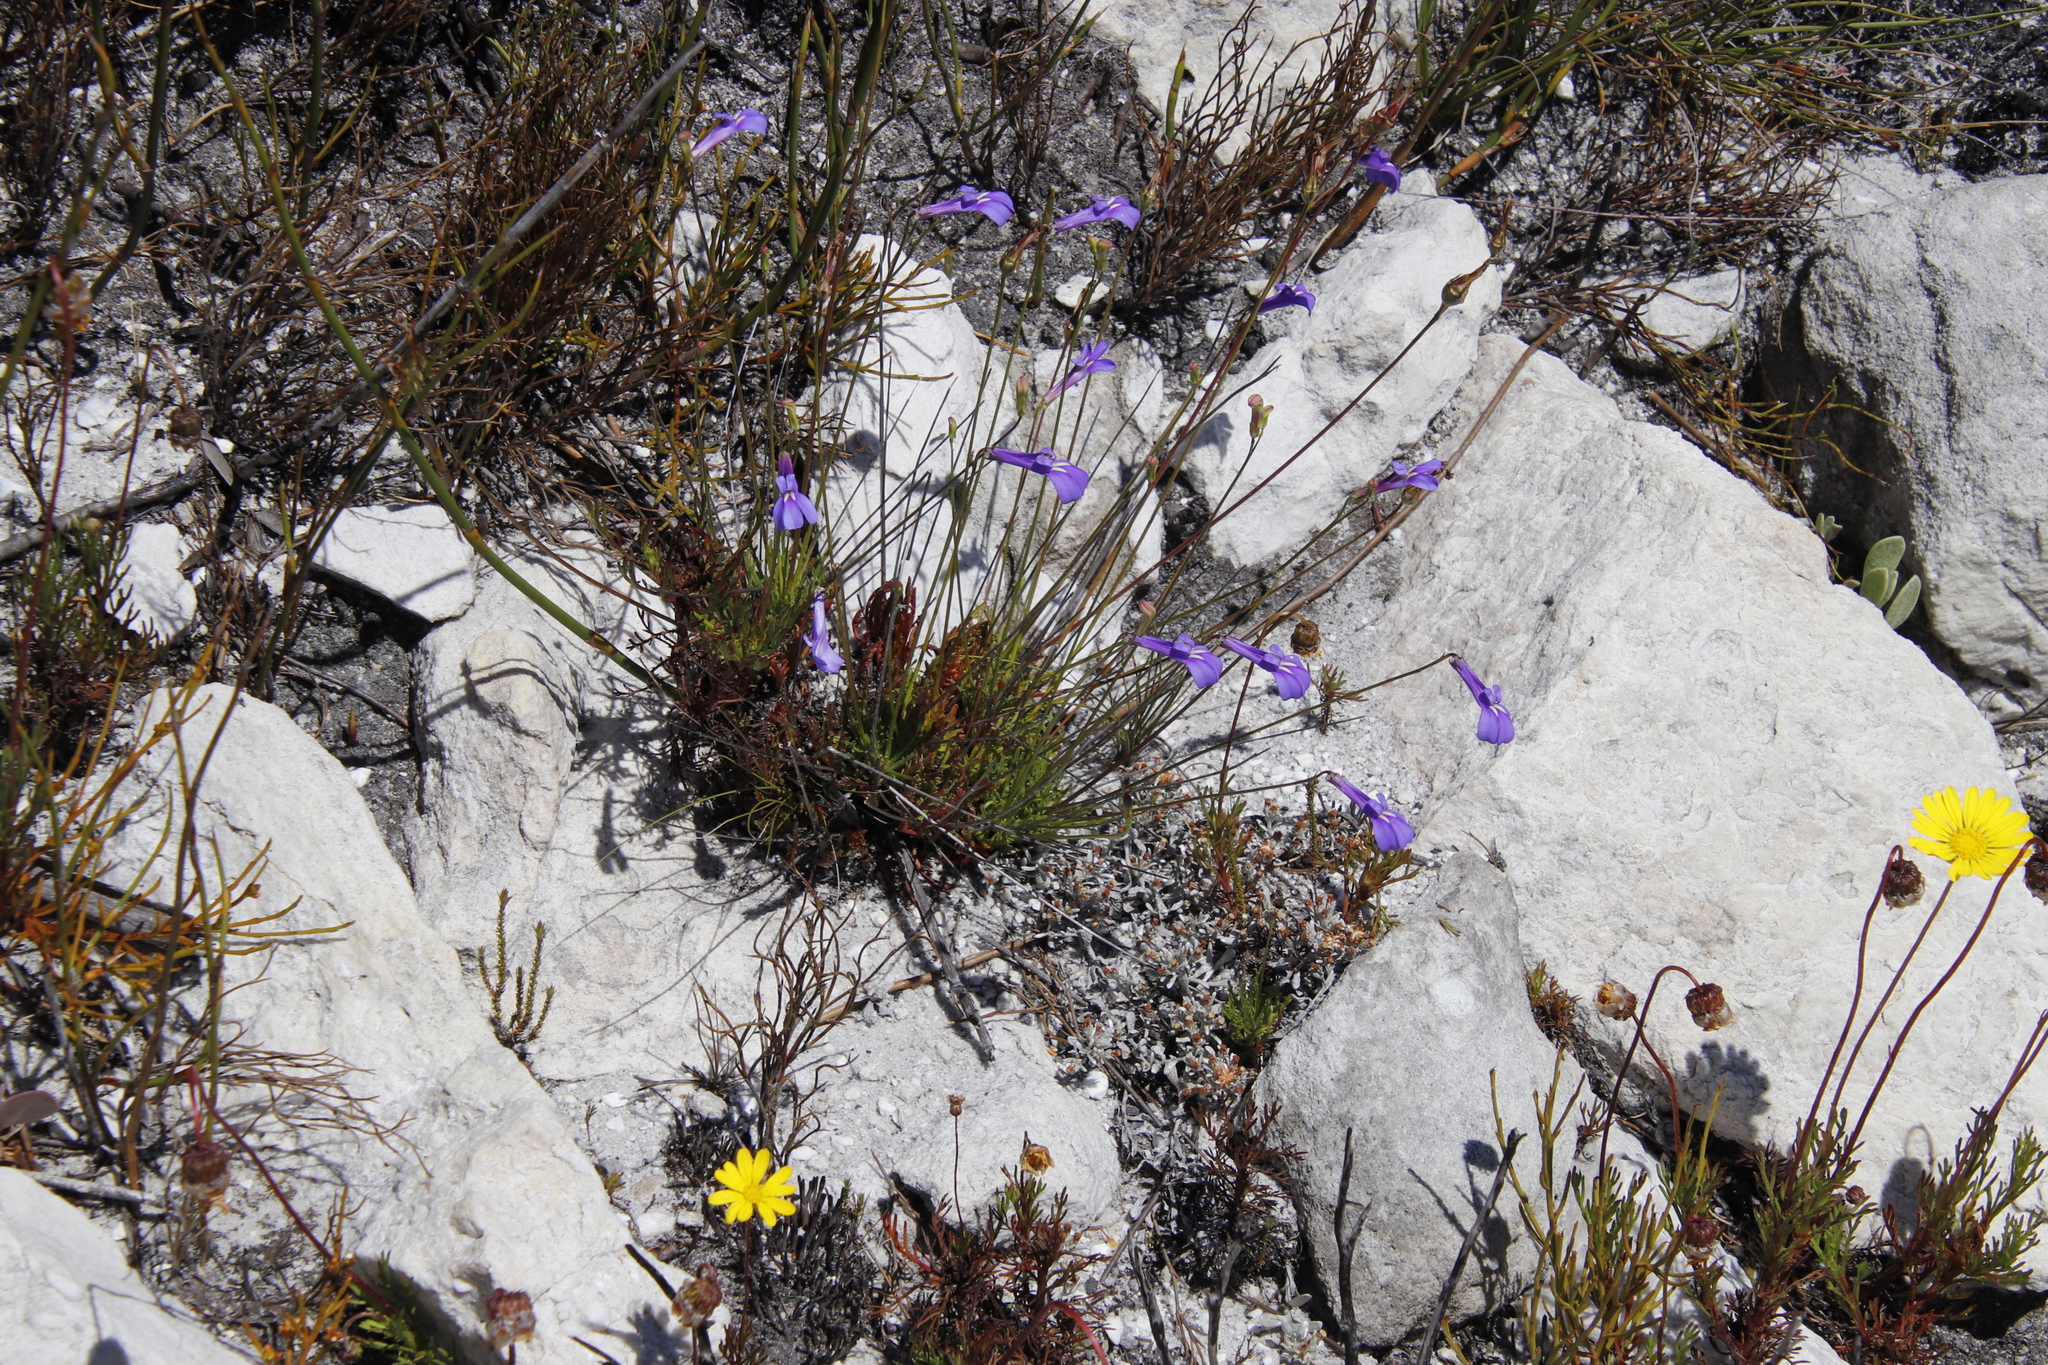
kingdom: Plantae
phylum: Tracheophyta
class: Magnoliopsida
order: Asterales
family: Campanulaceae
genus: Lobelia
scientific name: Lobelia coronopifolia
